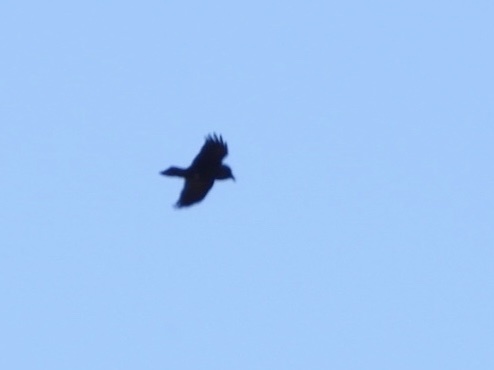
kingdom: Animalia
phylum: Chordata
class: Aves
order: Passeriformes
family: Corvidae
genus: Corvus
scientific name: Corvus corax
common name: Common raven
